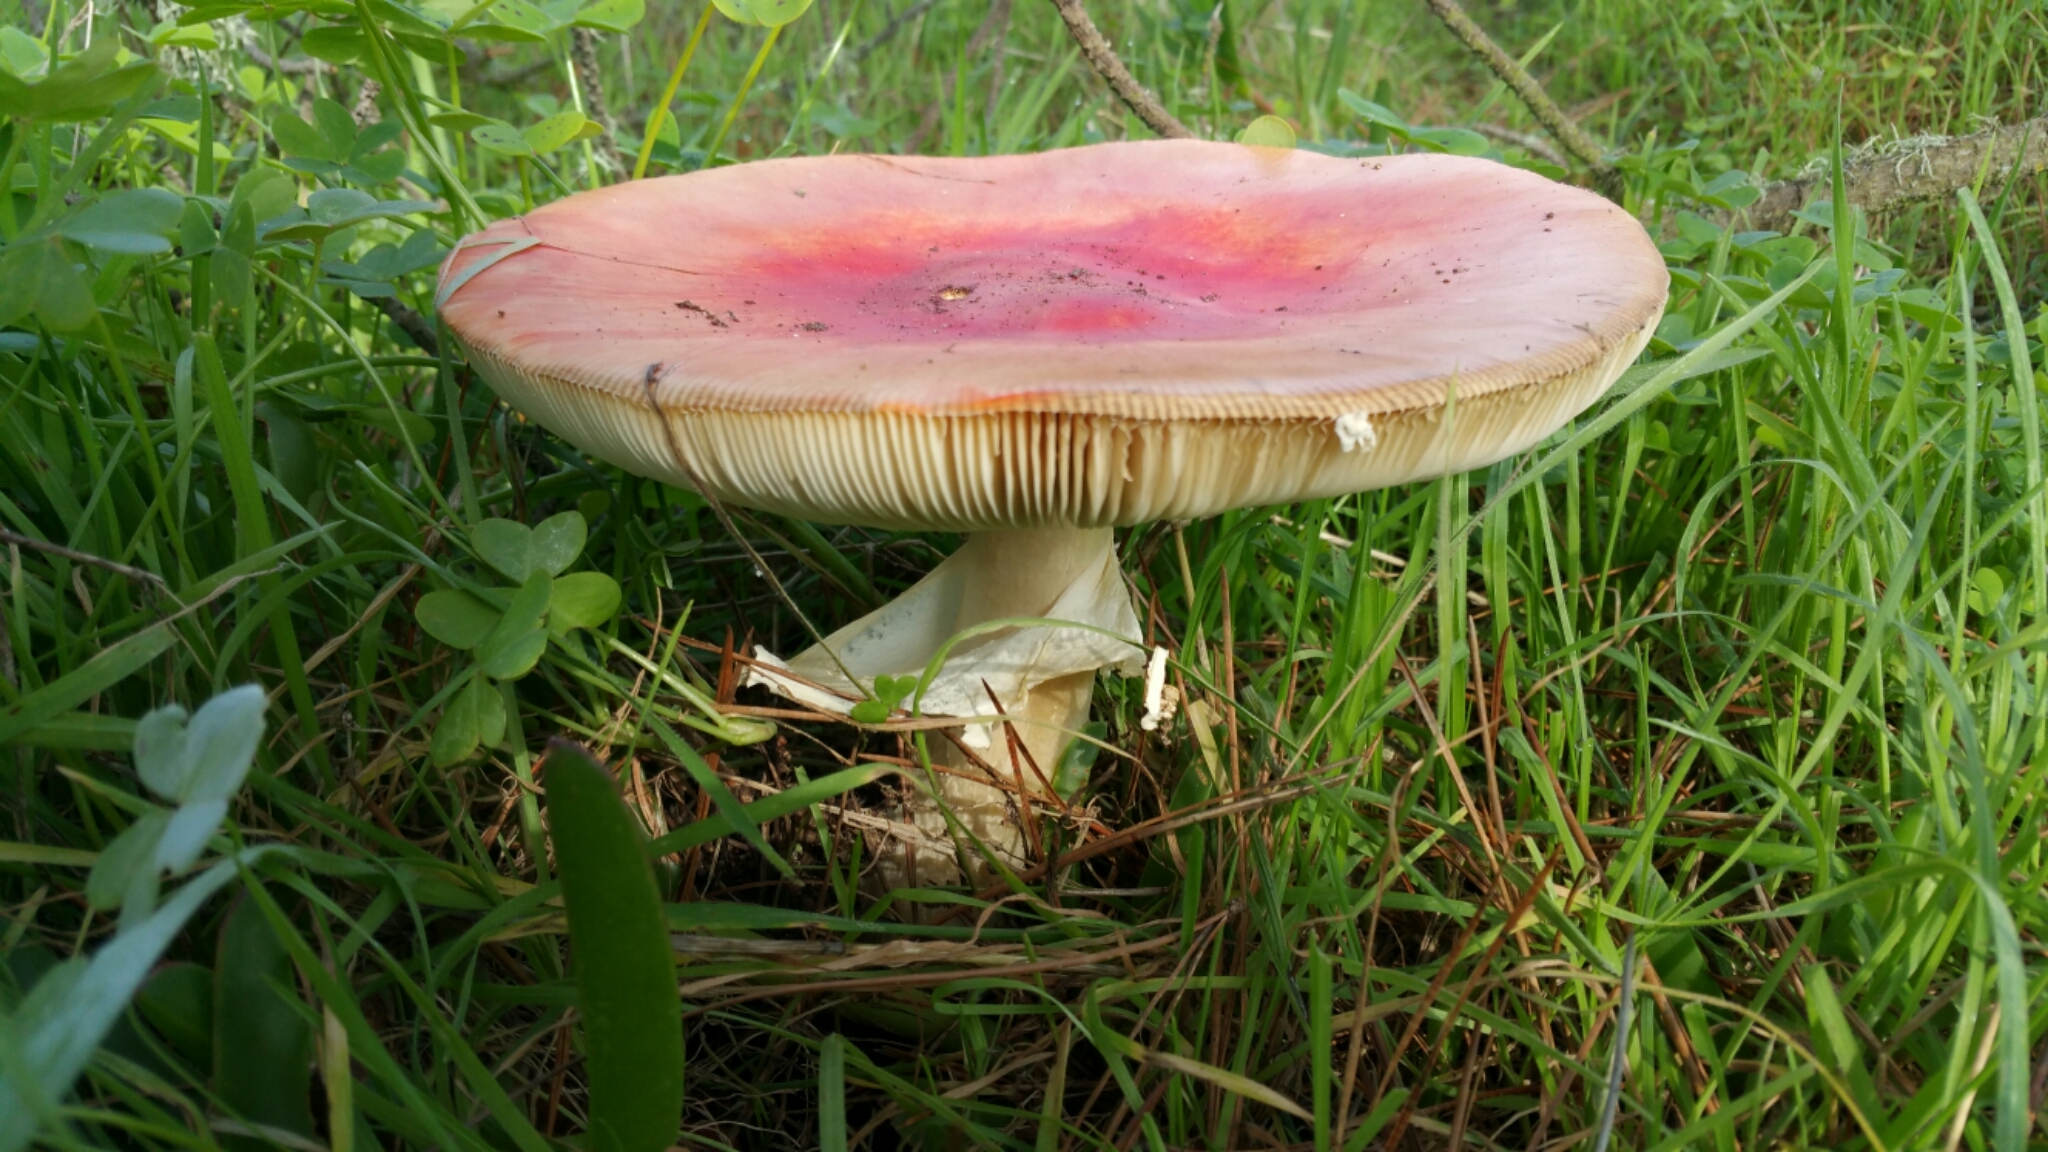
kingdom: Fungi
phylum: Basidiomycota
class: Agaricomycetes
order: Agaricales
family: Amanitaceae
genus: Amanita
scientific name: Amanita muscaria
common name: Fly agaric
